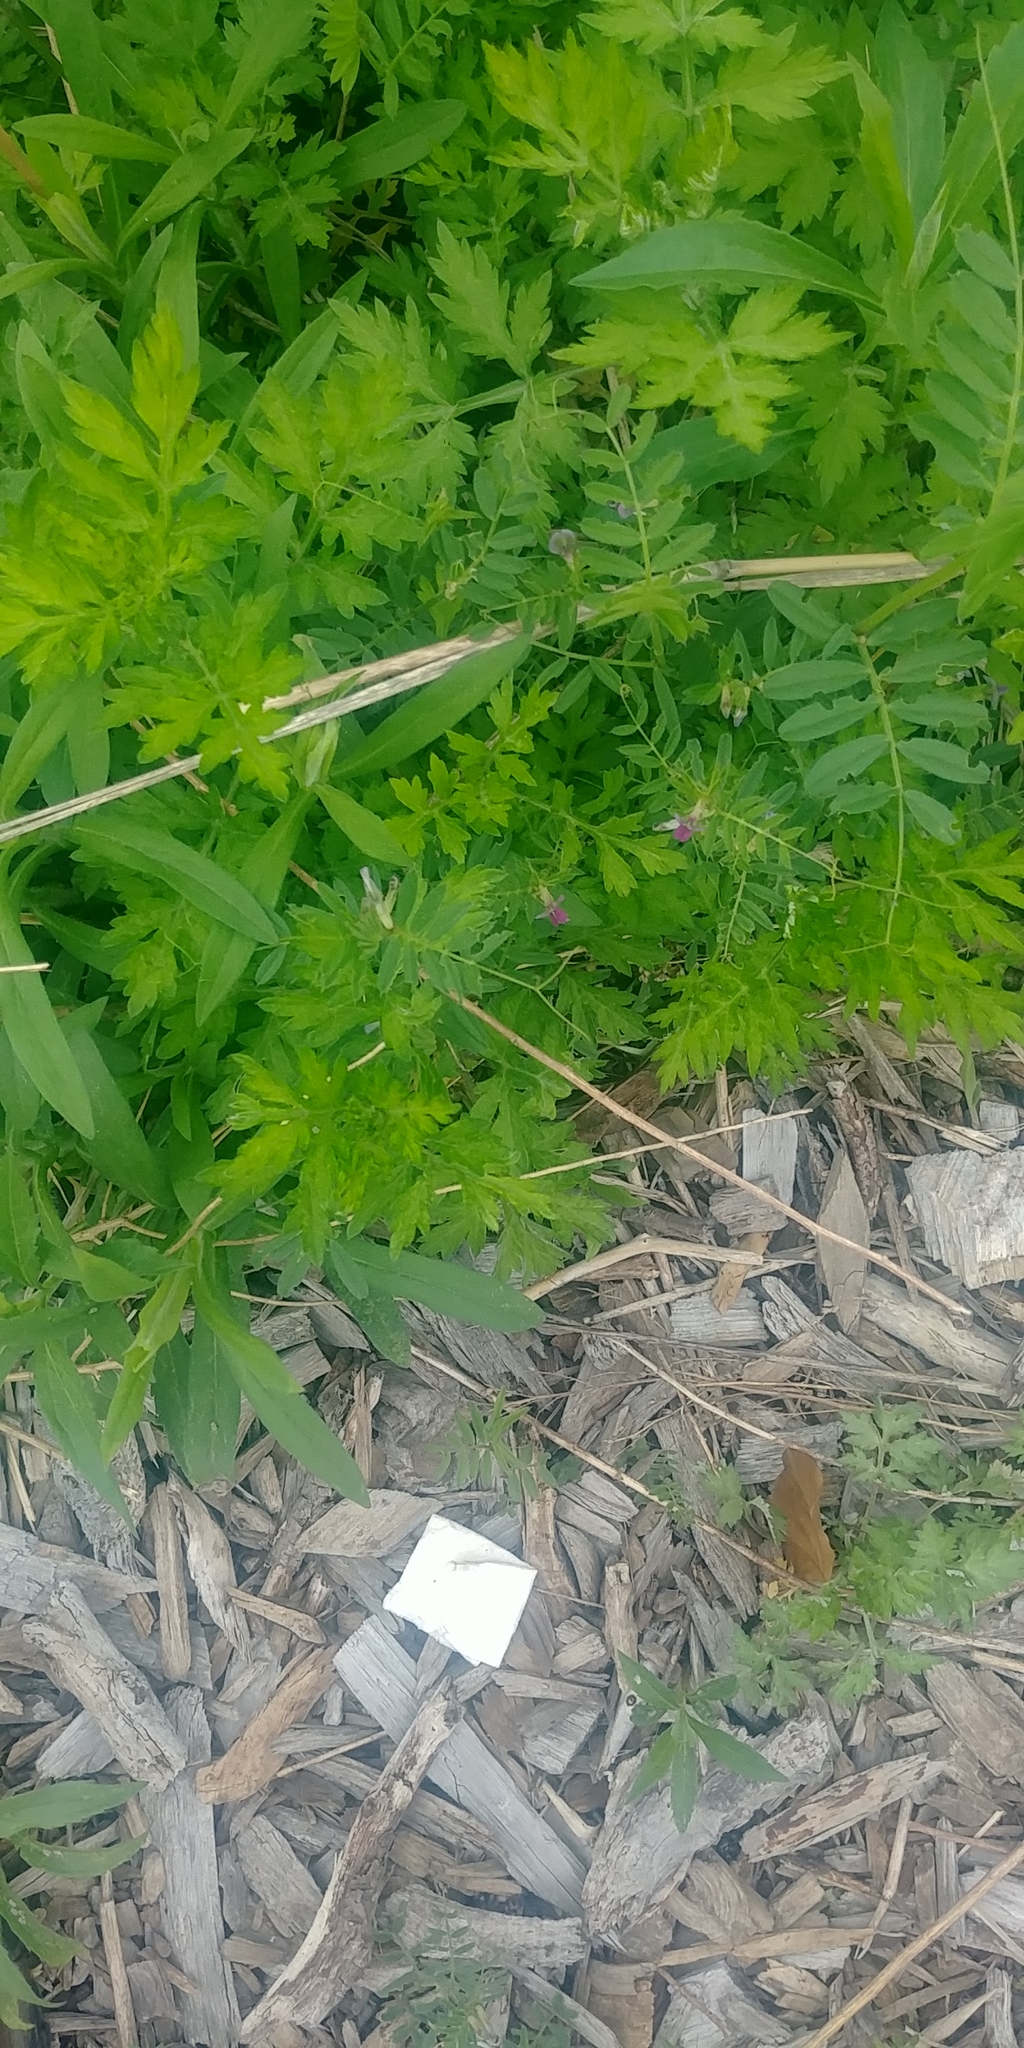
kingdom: Plantae
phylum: Tracheophyta
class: Magnoliopsida
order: Fabales
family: Fabaceae
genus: Vicia
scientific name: Vicia sativa
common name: Garden vetch
